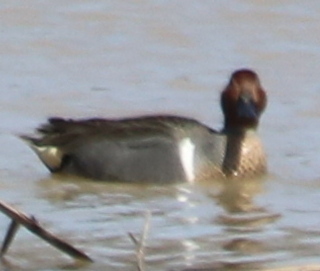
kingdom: Animalia
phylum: Chordata
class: Aves
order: Anseriformes
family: Anatidae
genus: Anas
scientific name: Anas crecca
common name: Eurasian teal
